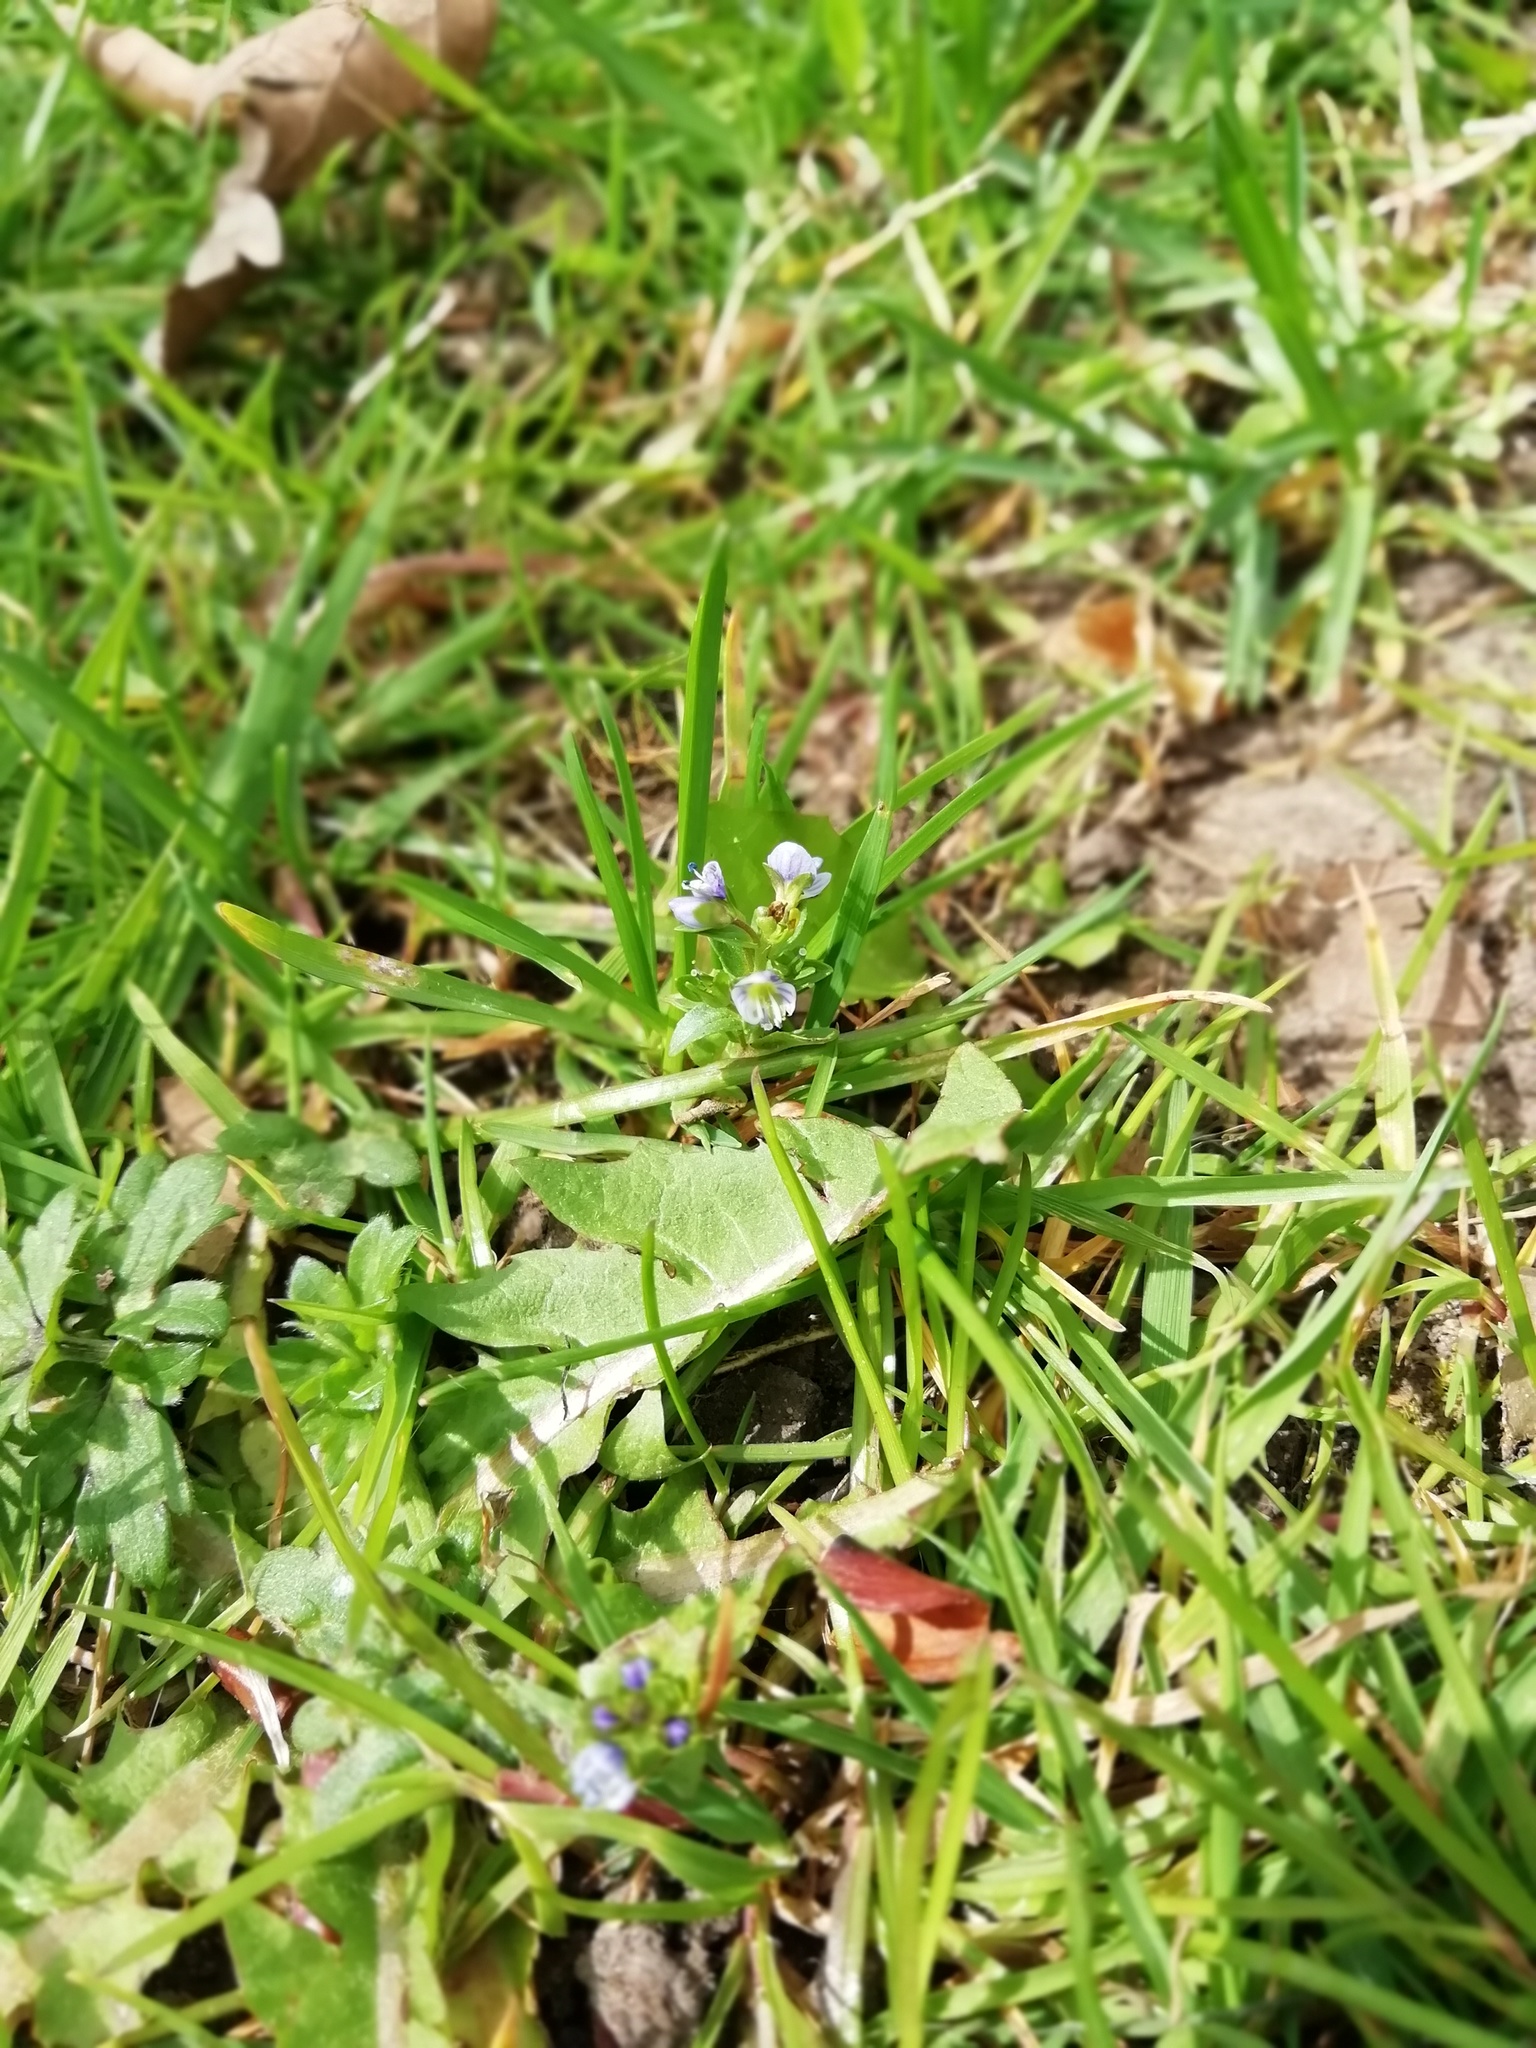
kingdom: Plantae
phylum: Tracheophyta
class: Magnoliopsida
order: Lamiales
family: Plantaginaceae
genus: Veronica
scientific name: Veronica serpyllifolia
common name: Thyme-leaved speedwell
